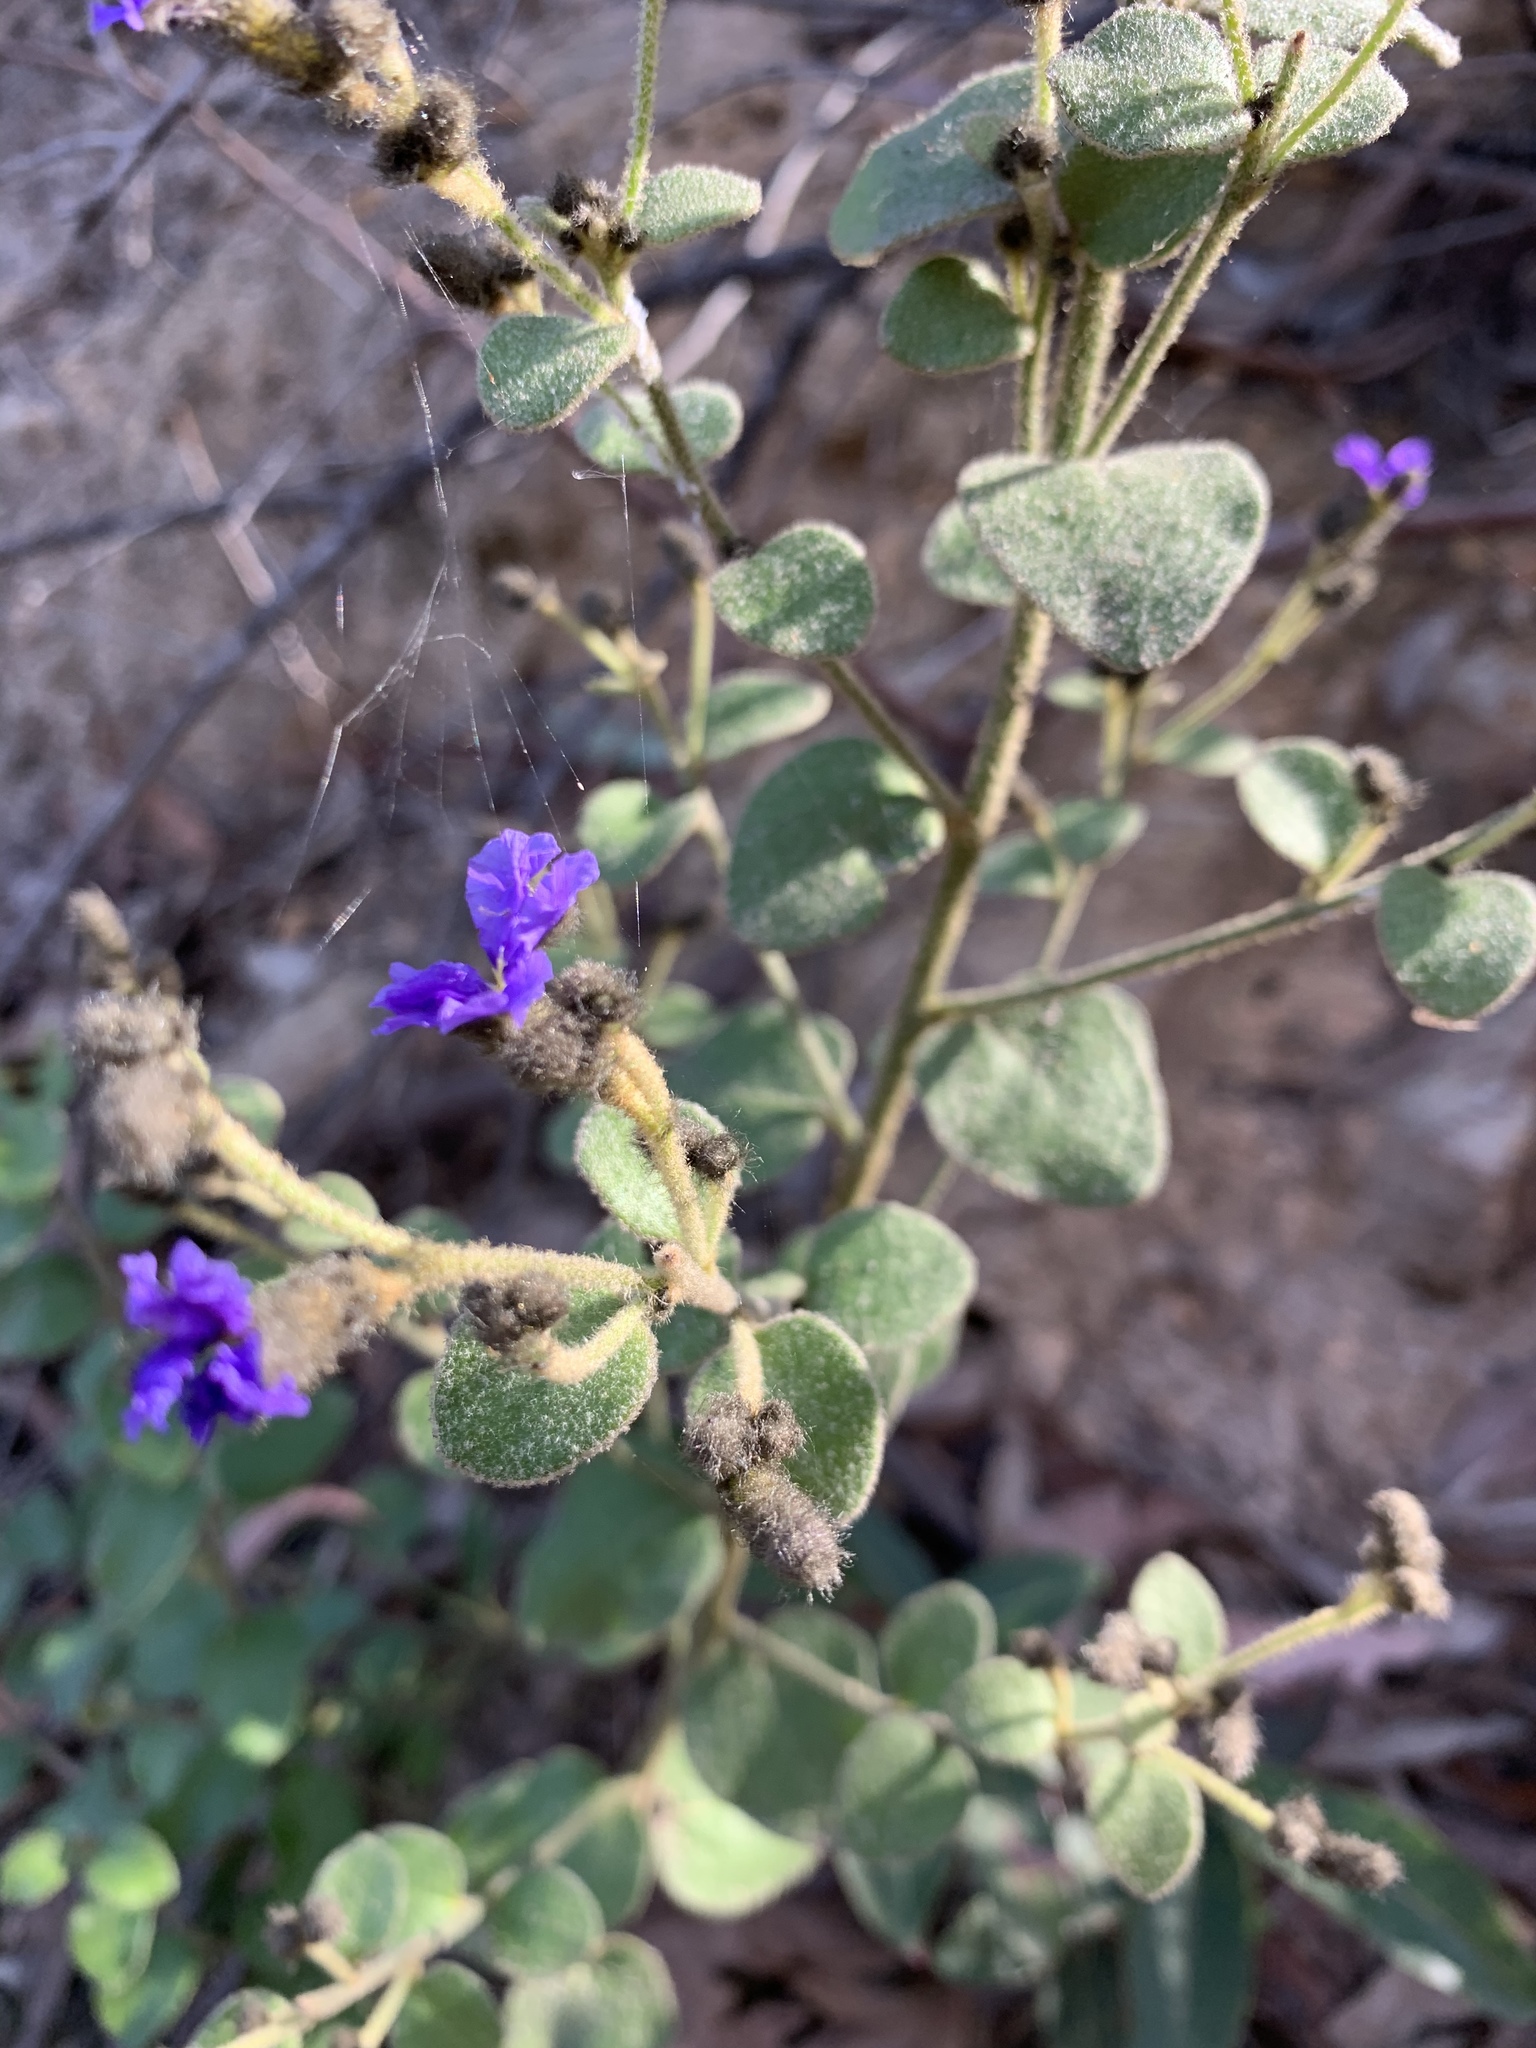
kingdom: Plantae
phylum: Tracheophyta
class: Magnoliopsida
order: Asterales
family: Goodeniaceae
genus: Dampiera
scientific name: Dampiera purpurea
